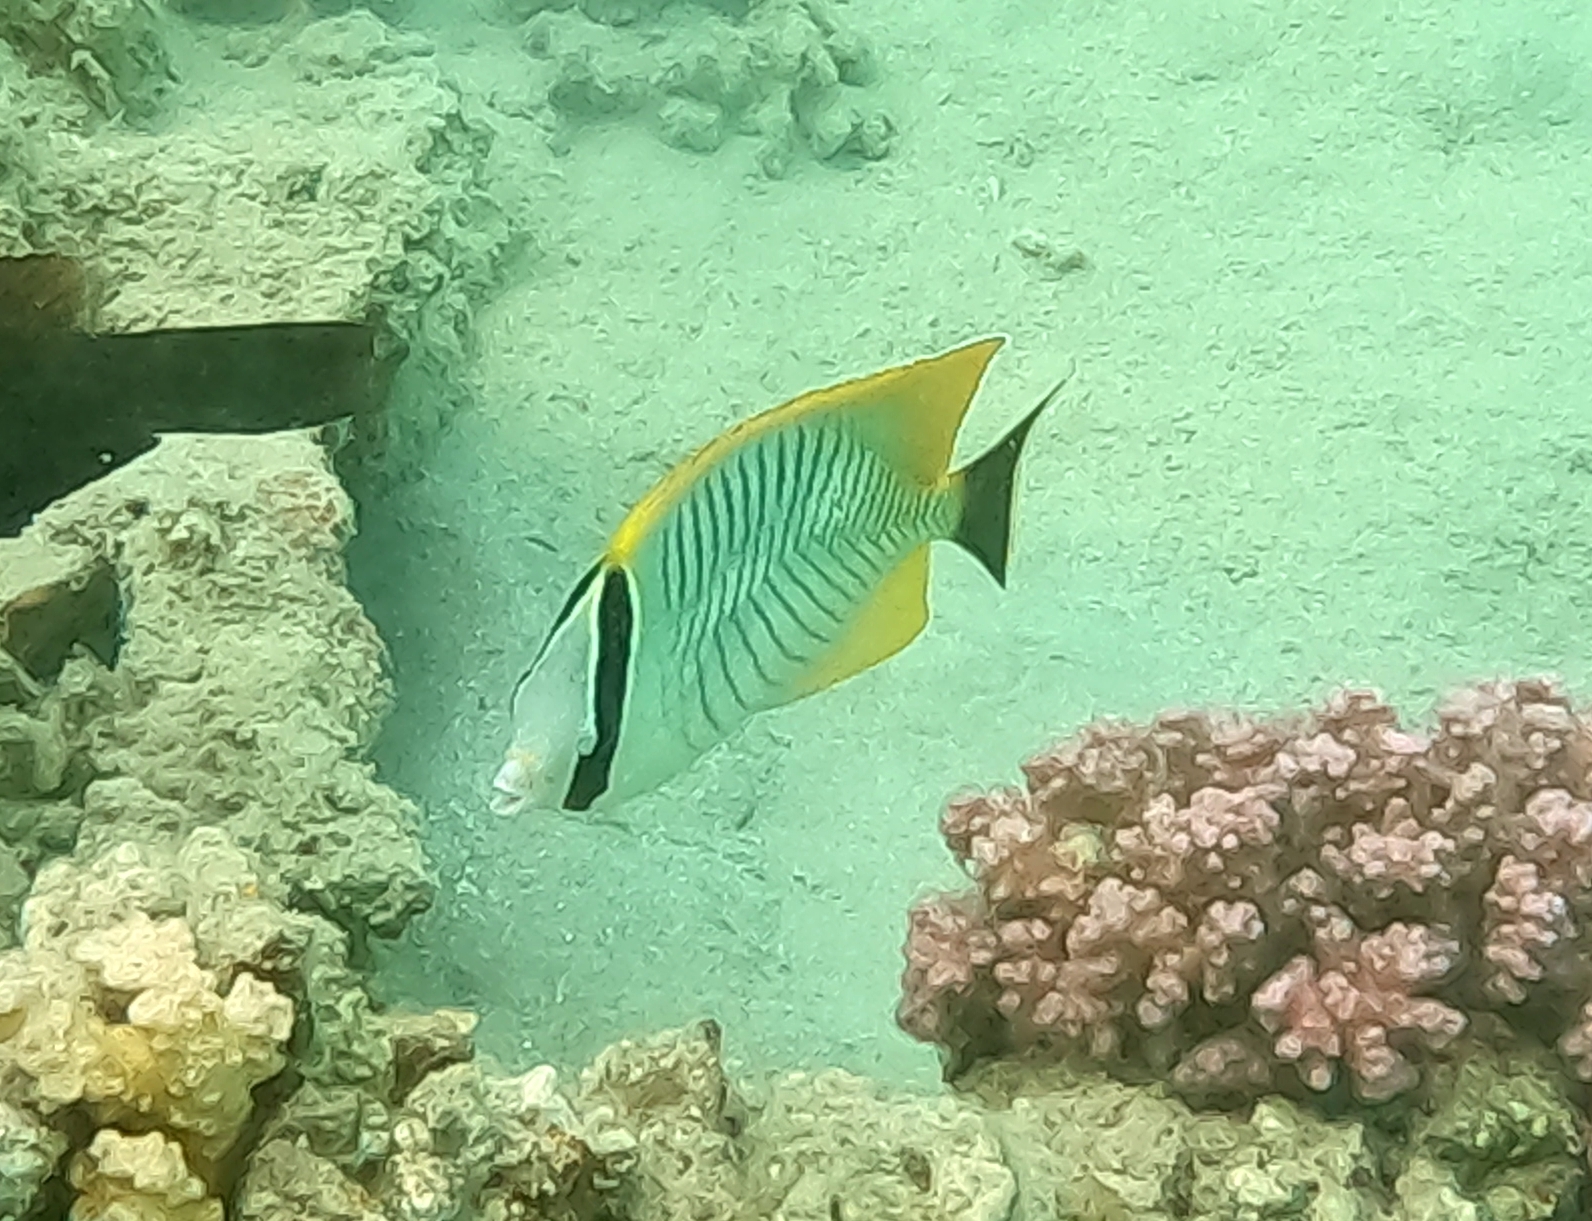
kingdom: Animalia
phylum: Chordata
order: Perciformes
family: Chaetodontidae
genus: Chaetodon
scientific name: Chaetodon trifascialis
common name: Chevroned butterflyfish
